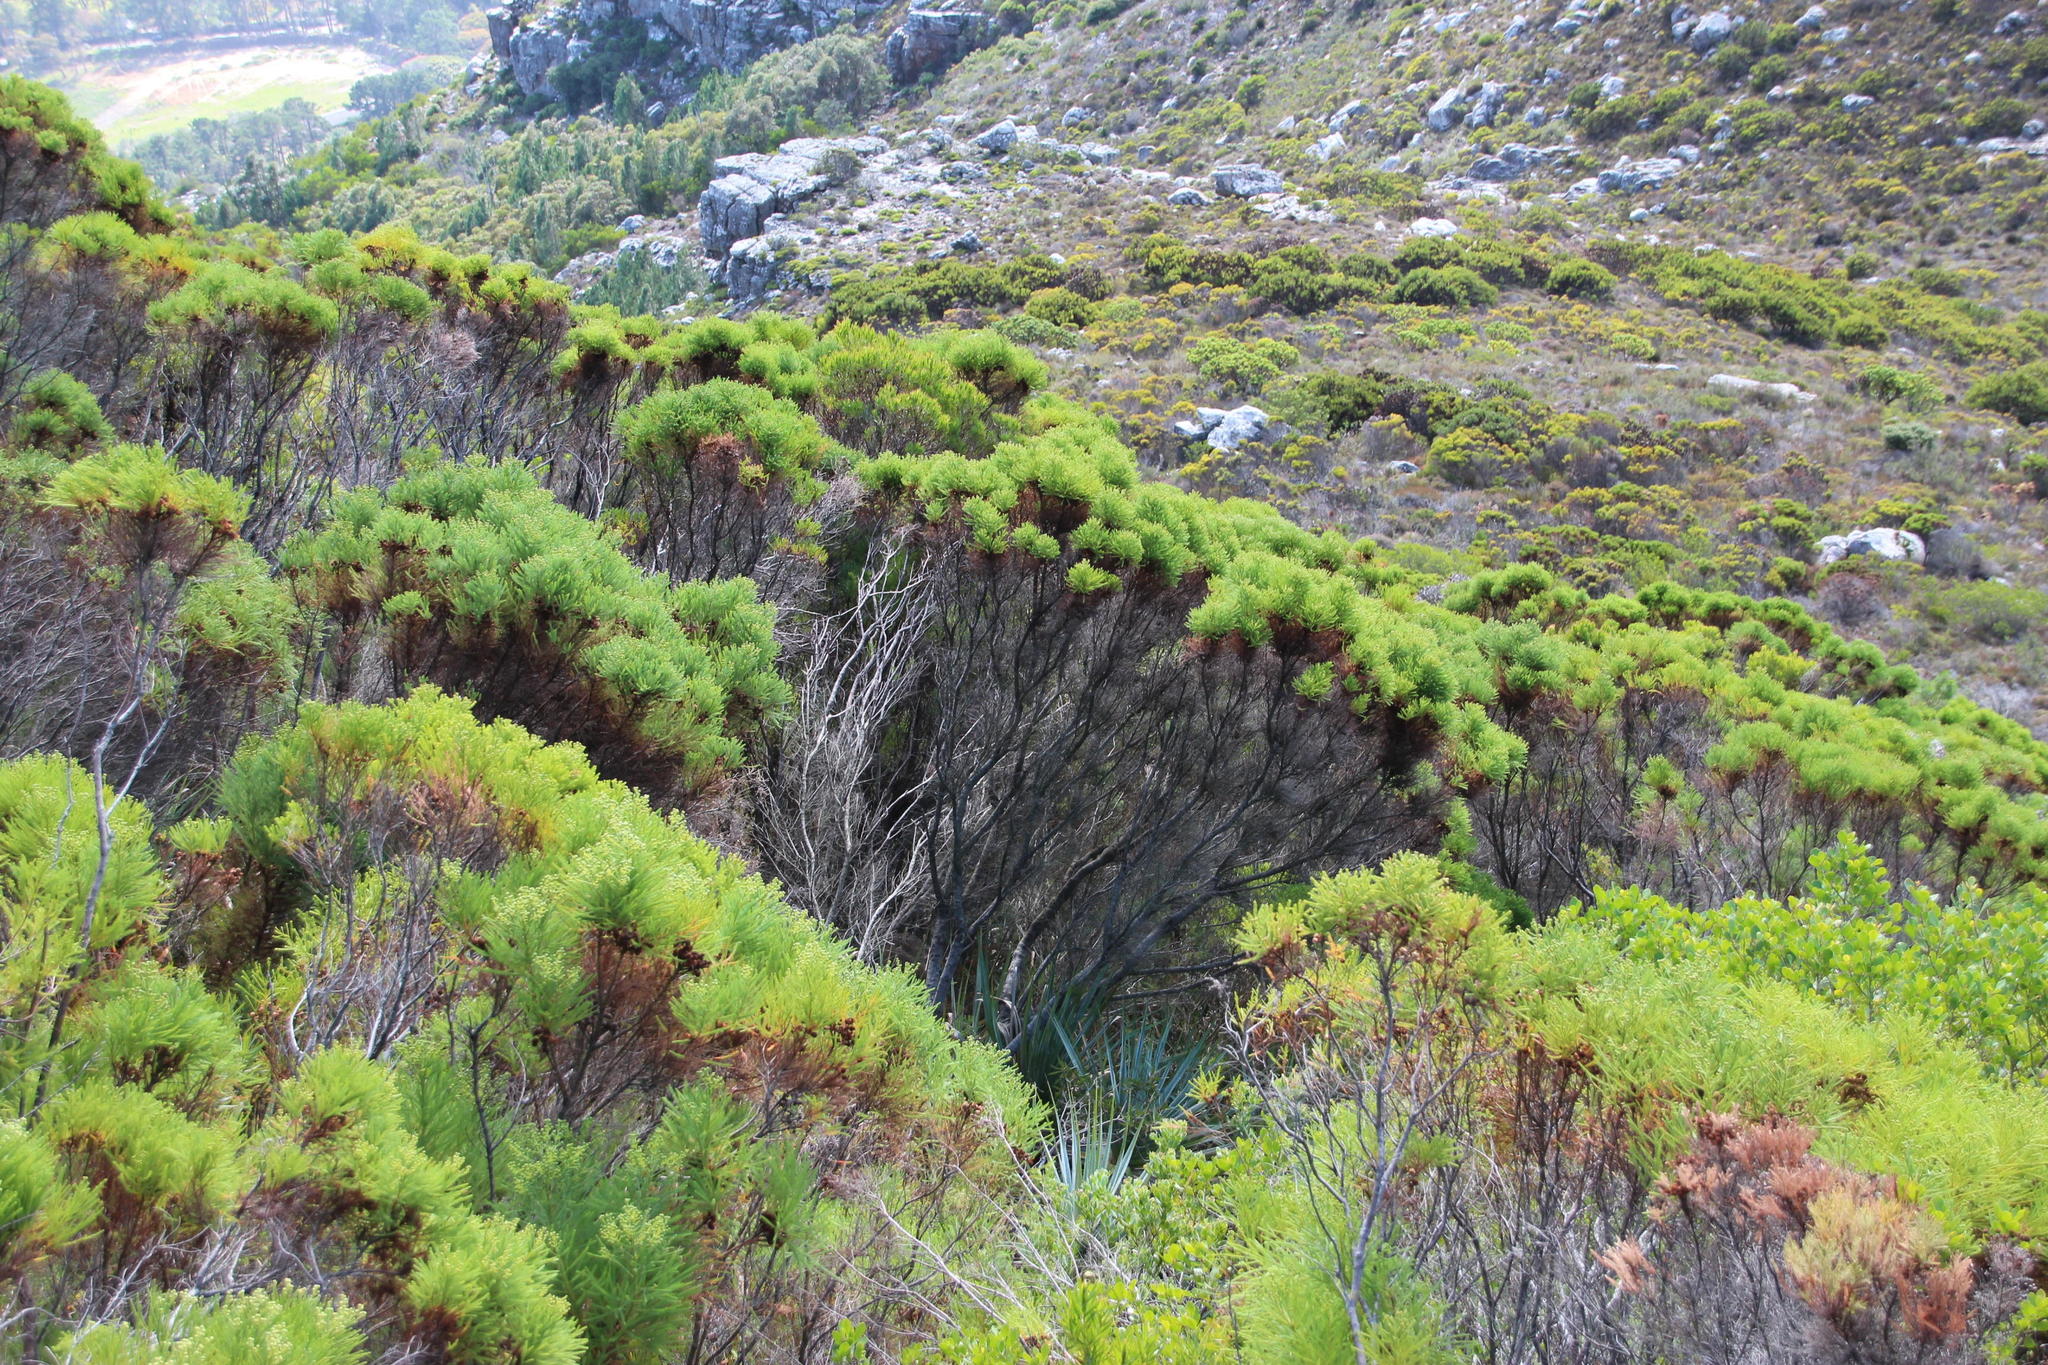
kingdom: Plantae
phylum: Tracheophyta
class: Magnoliopsida
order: Bruniales
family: Bruniaceae
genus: Berzelia
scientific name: Berzelia lanuginosa
